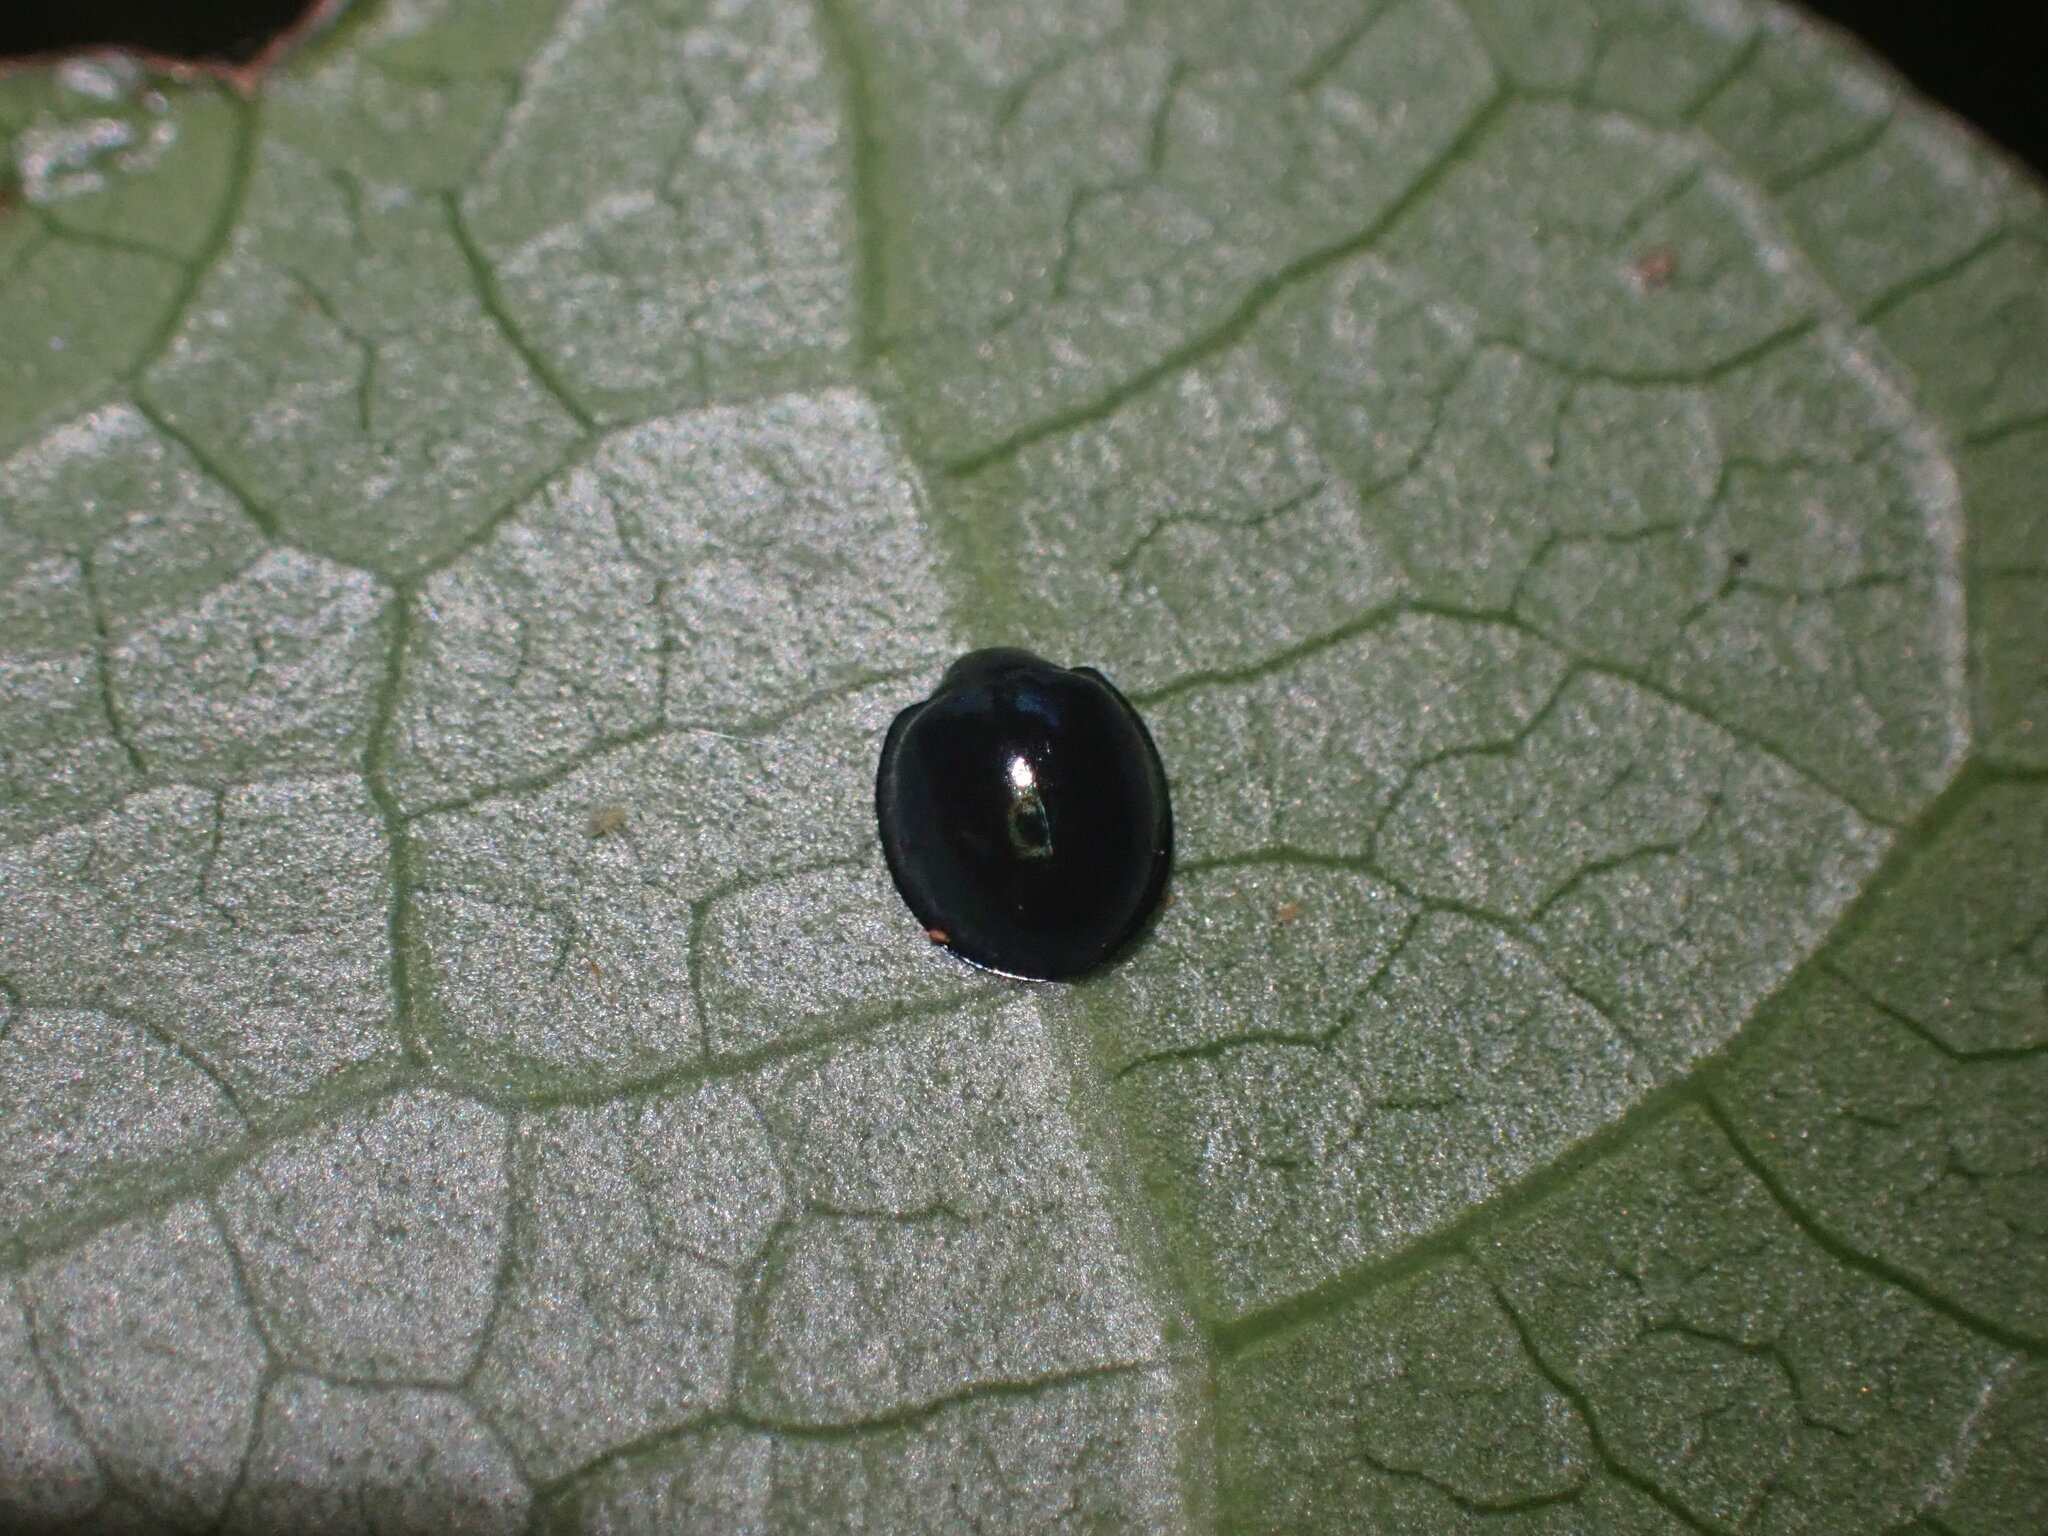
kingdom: Animalia
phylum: Arthropoda
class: Insecta
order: Coleoptera
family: Coccinellidae
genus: Halmus
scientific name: Halmus chalybeus
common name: Steel blue ladybird beetle
